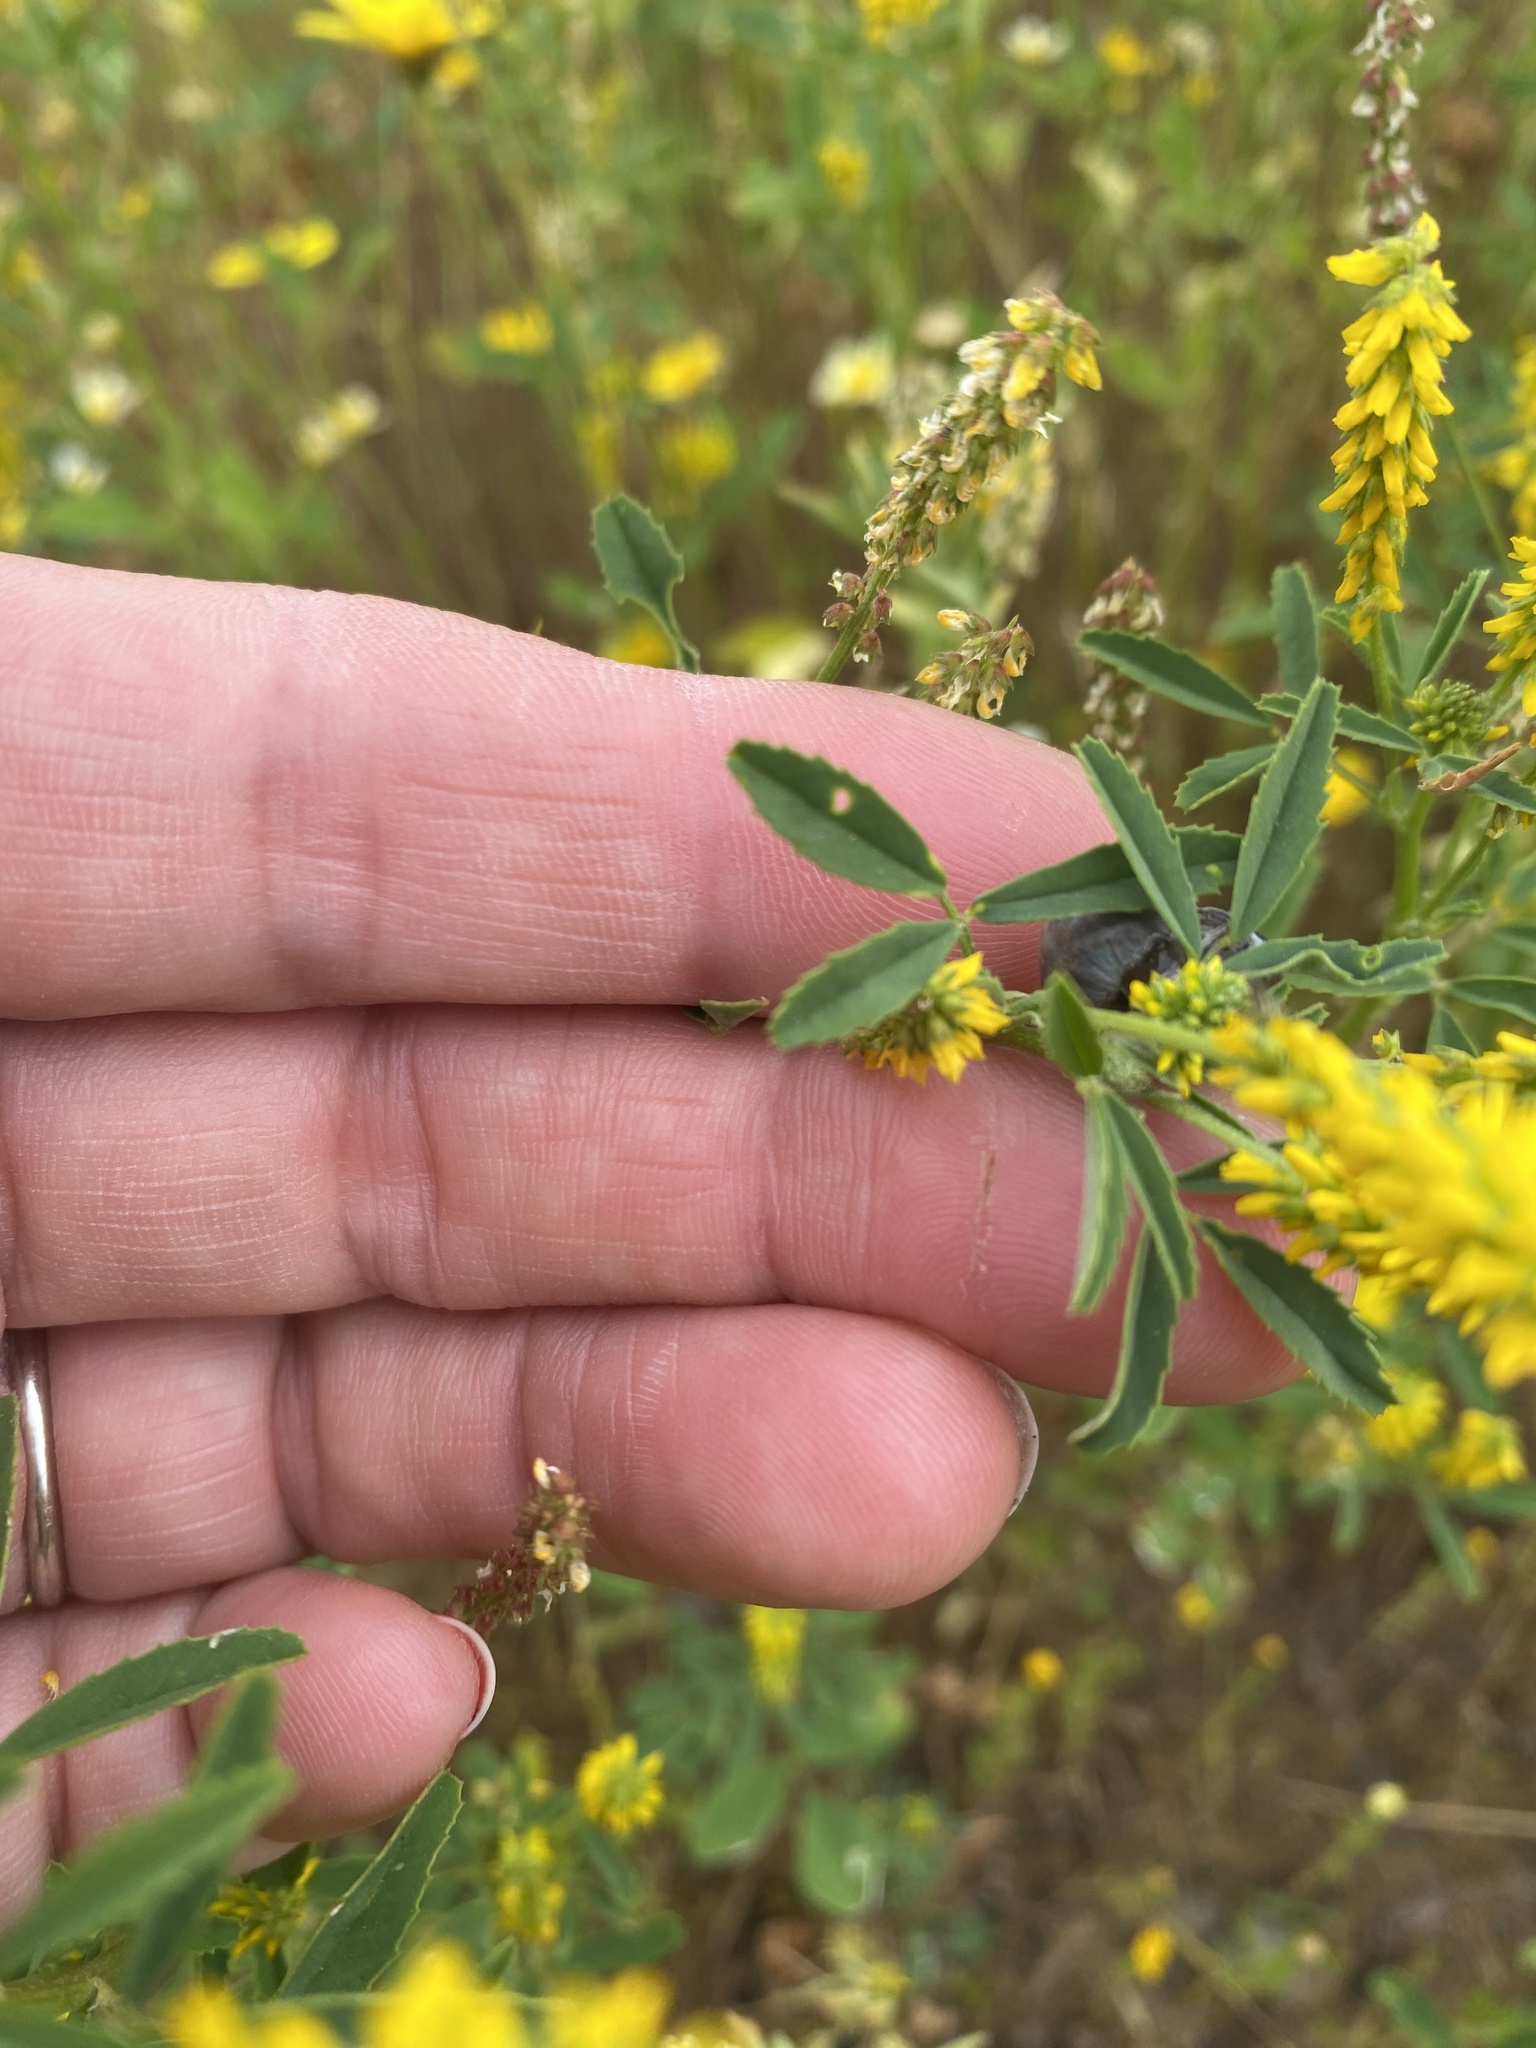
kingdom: Plantae
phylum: Tracheophyta
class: Magnoliopsida
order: Fabales
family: Fabaceae
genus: Melilotus
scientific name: Melilotus indicus
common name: Small melilot
